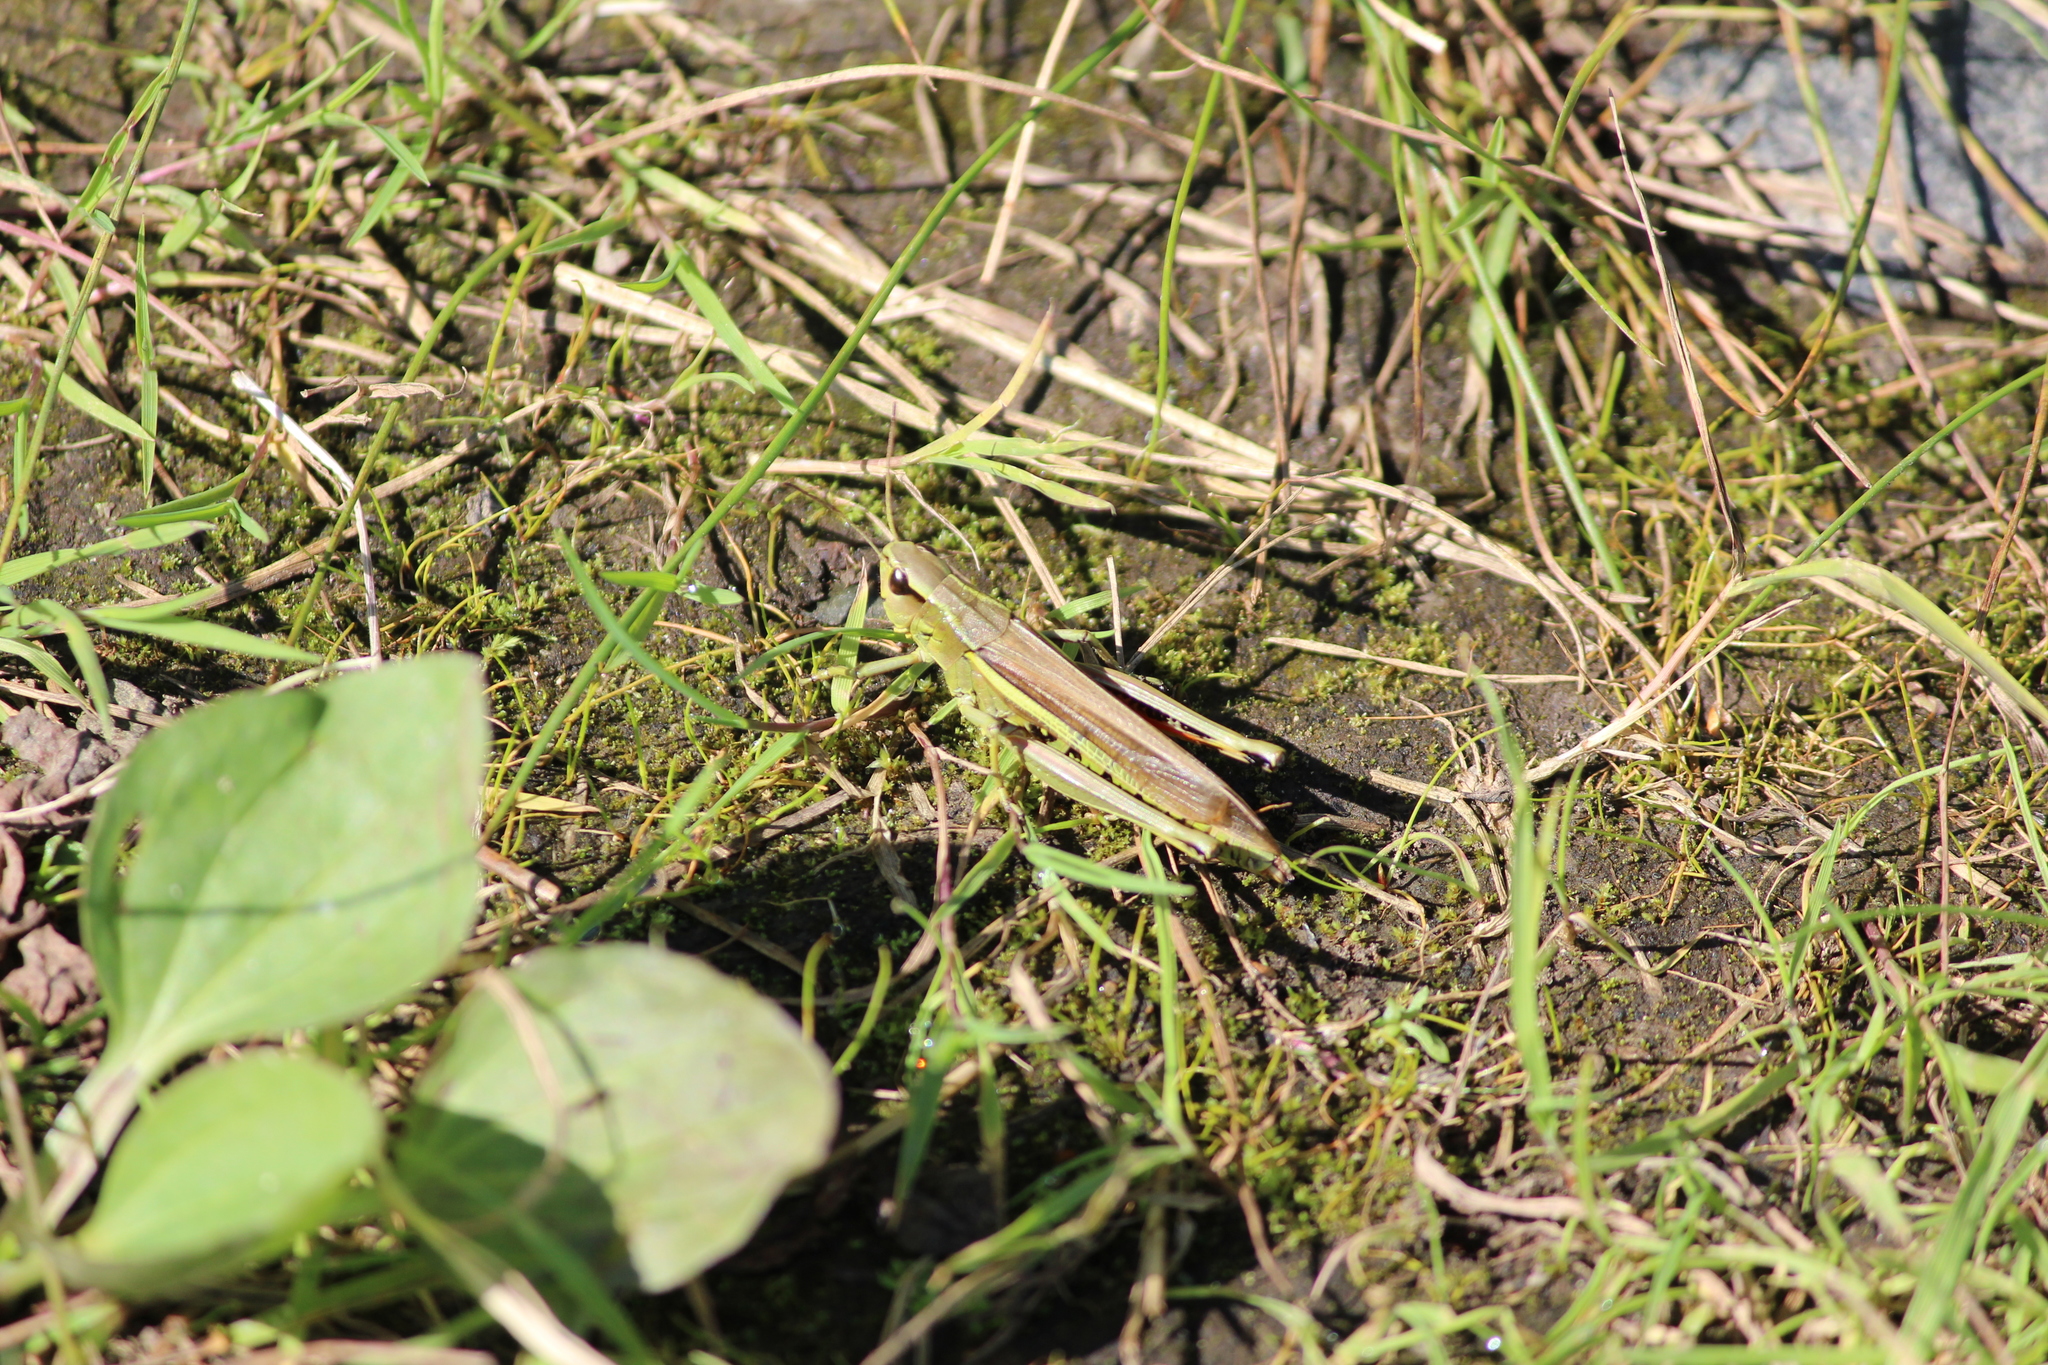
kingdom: Animalia
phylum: Arthropoda
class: Insecta
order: Orthoptera
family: Acrididae
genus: Stethophyma
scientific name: Stethophyma grossum
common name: Large marsh grasshopper
